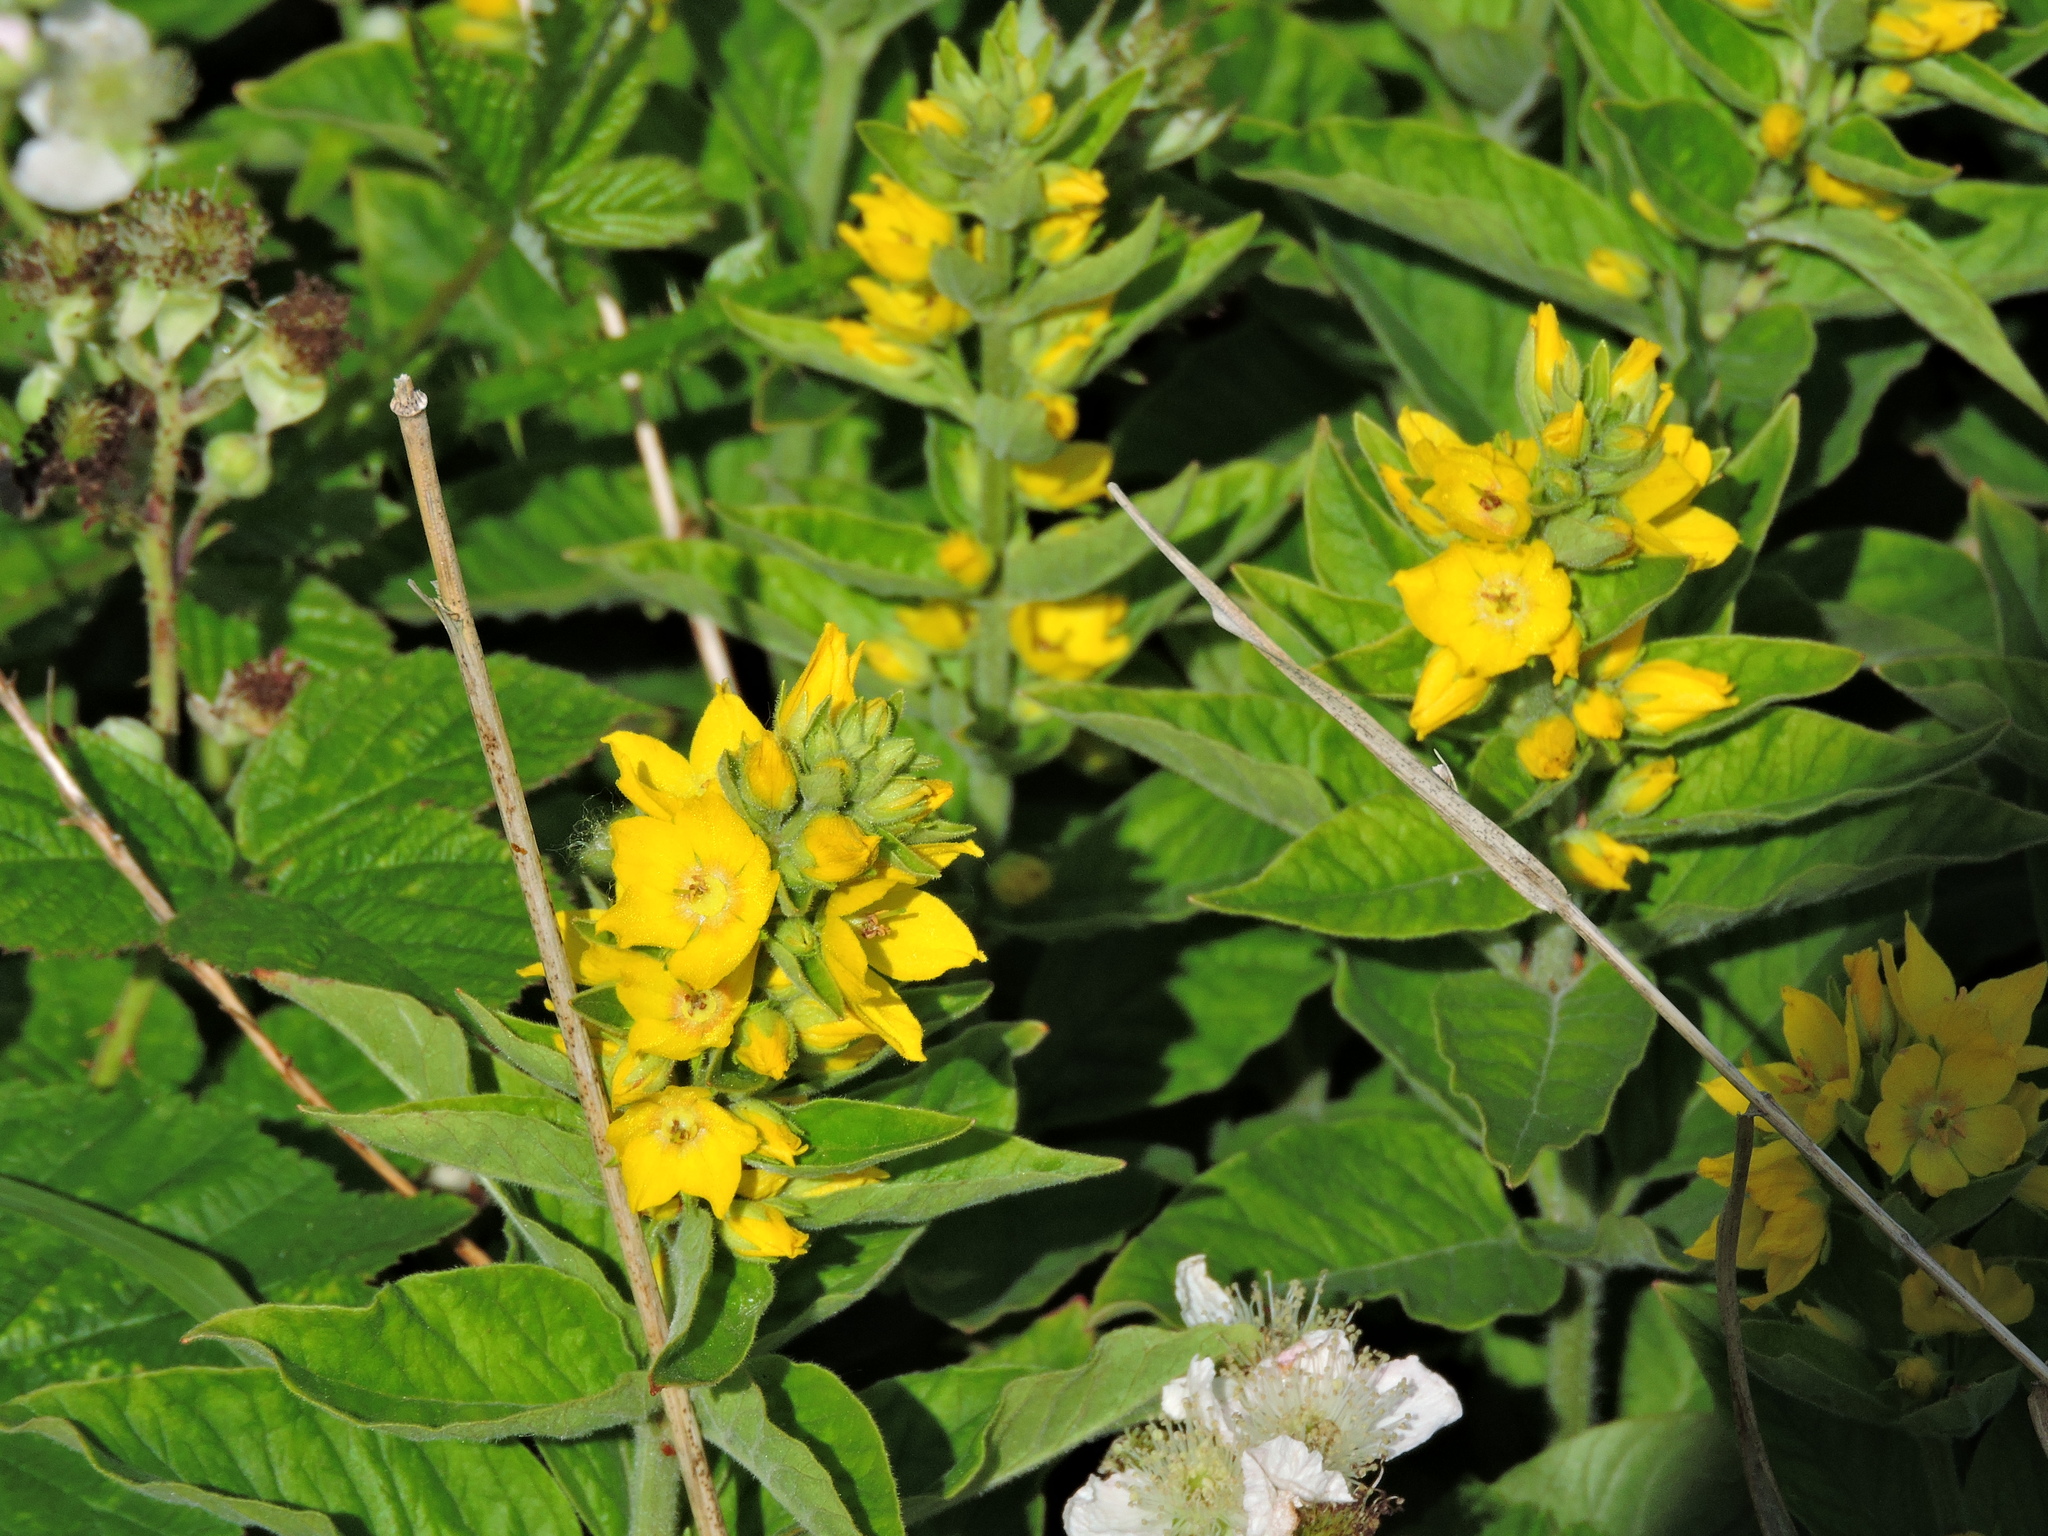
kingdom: Plantae
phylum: Tracheophyta
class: Magnoliopsida
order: Ericales
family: Primulaceae
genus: Lysimachia
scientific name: Lysimachia punctata
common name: Dotted loosestrife
